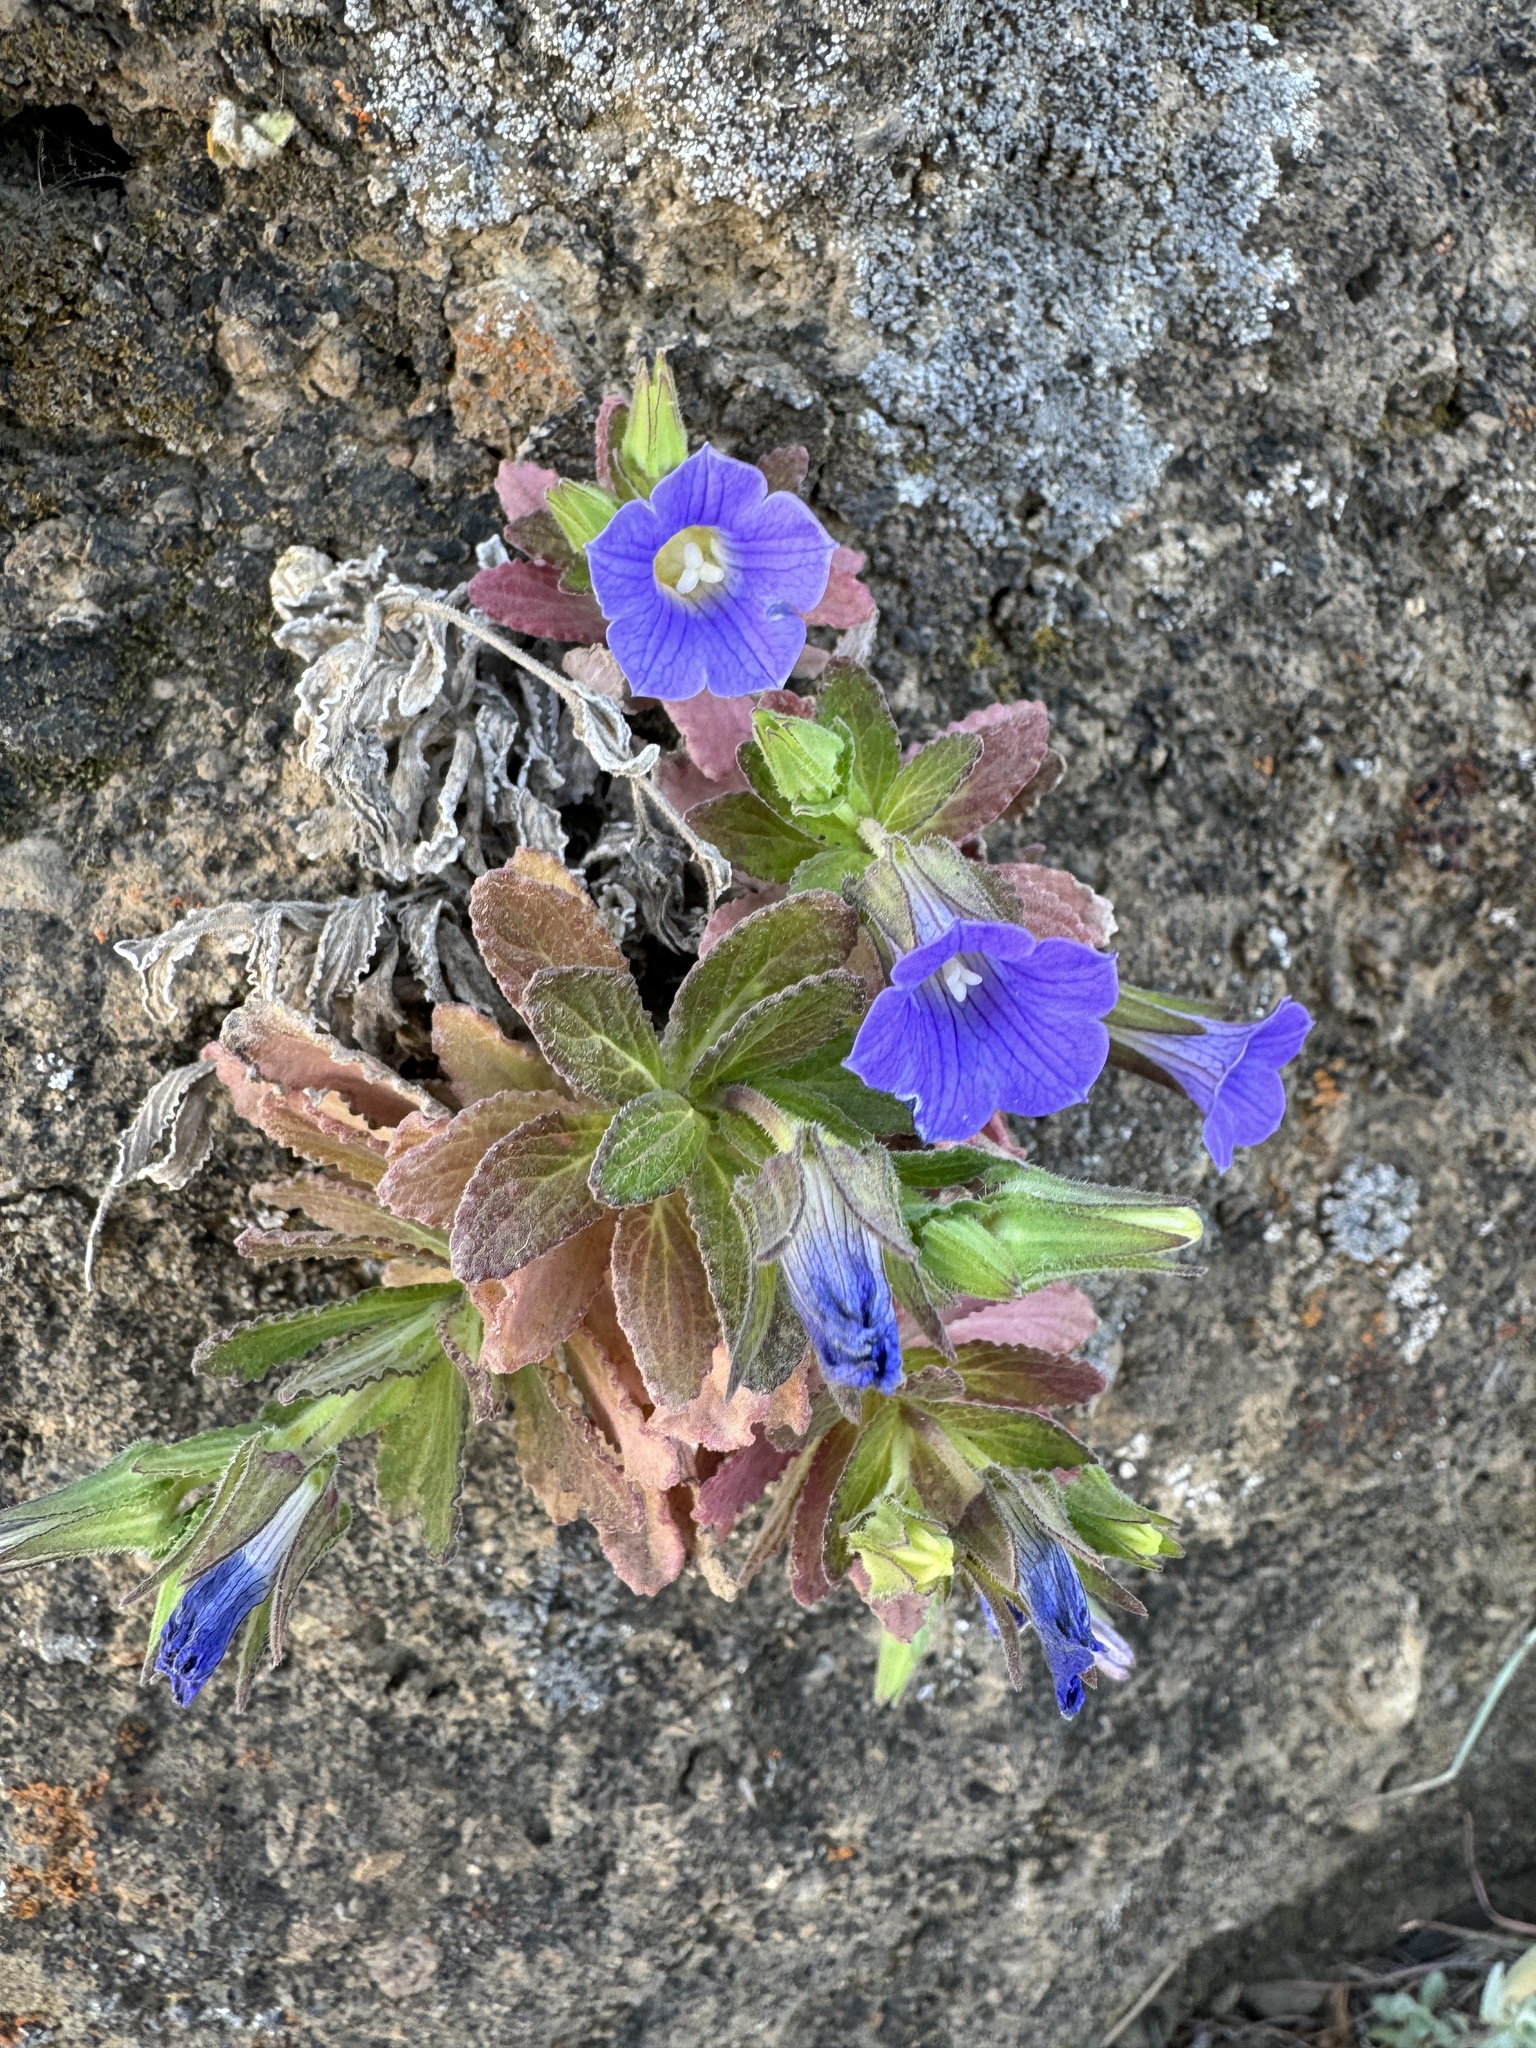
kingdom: Plantae
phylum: Tracheophyta
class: Magnoliopsida
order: Asterales
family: Campanulaceae
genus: Campanula
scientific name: Campanula feijoana
